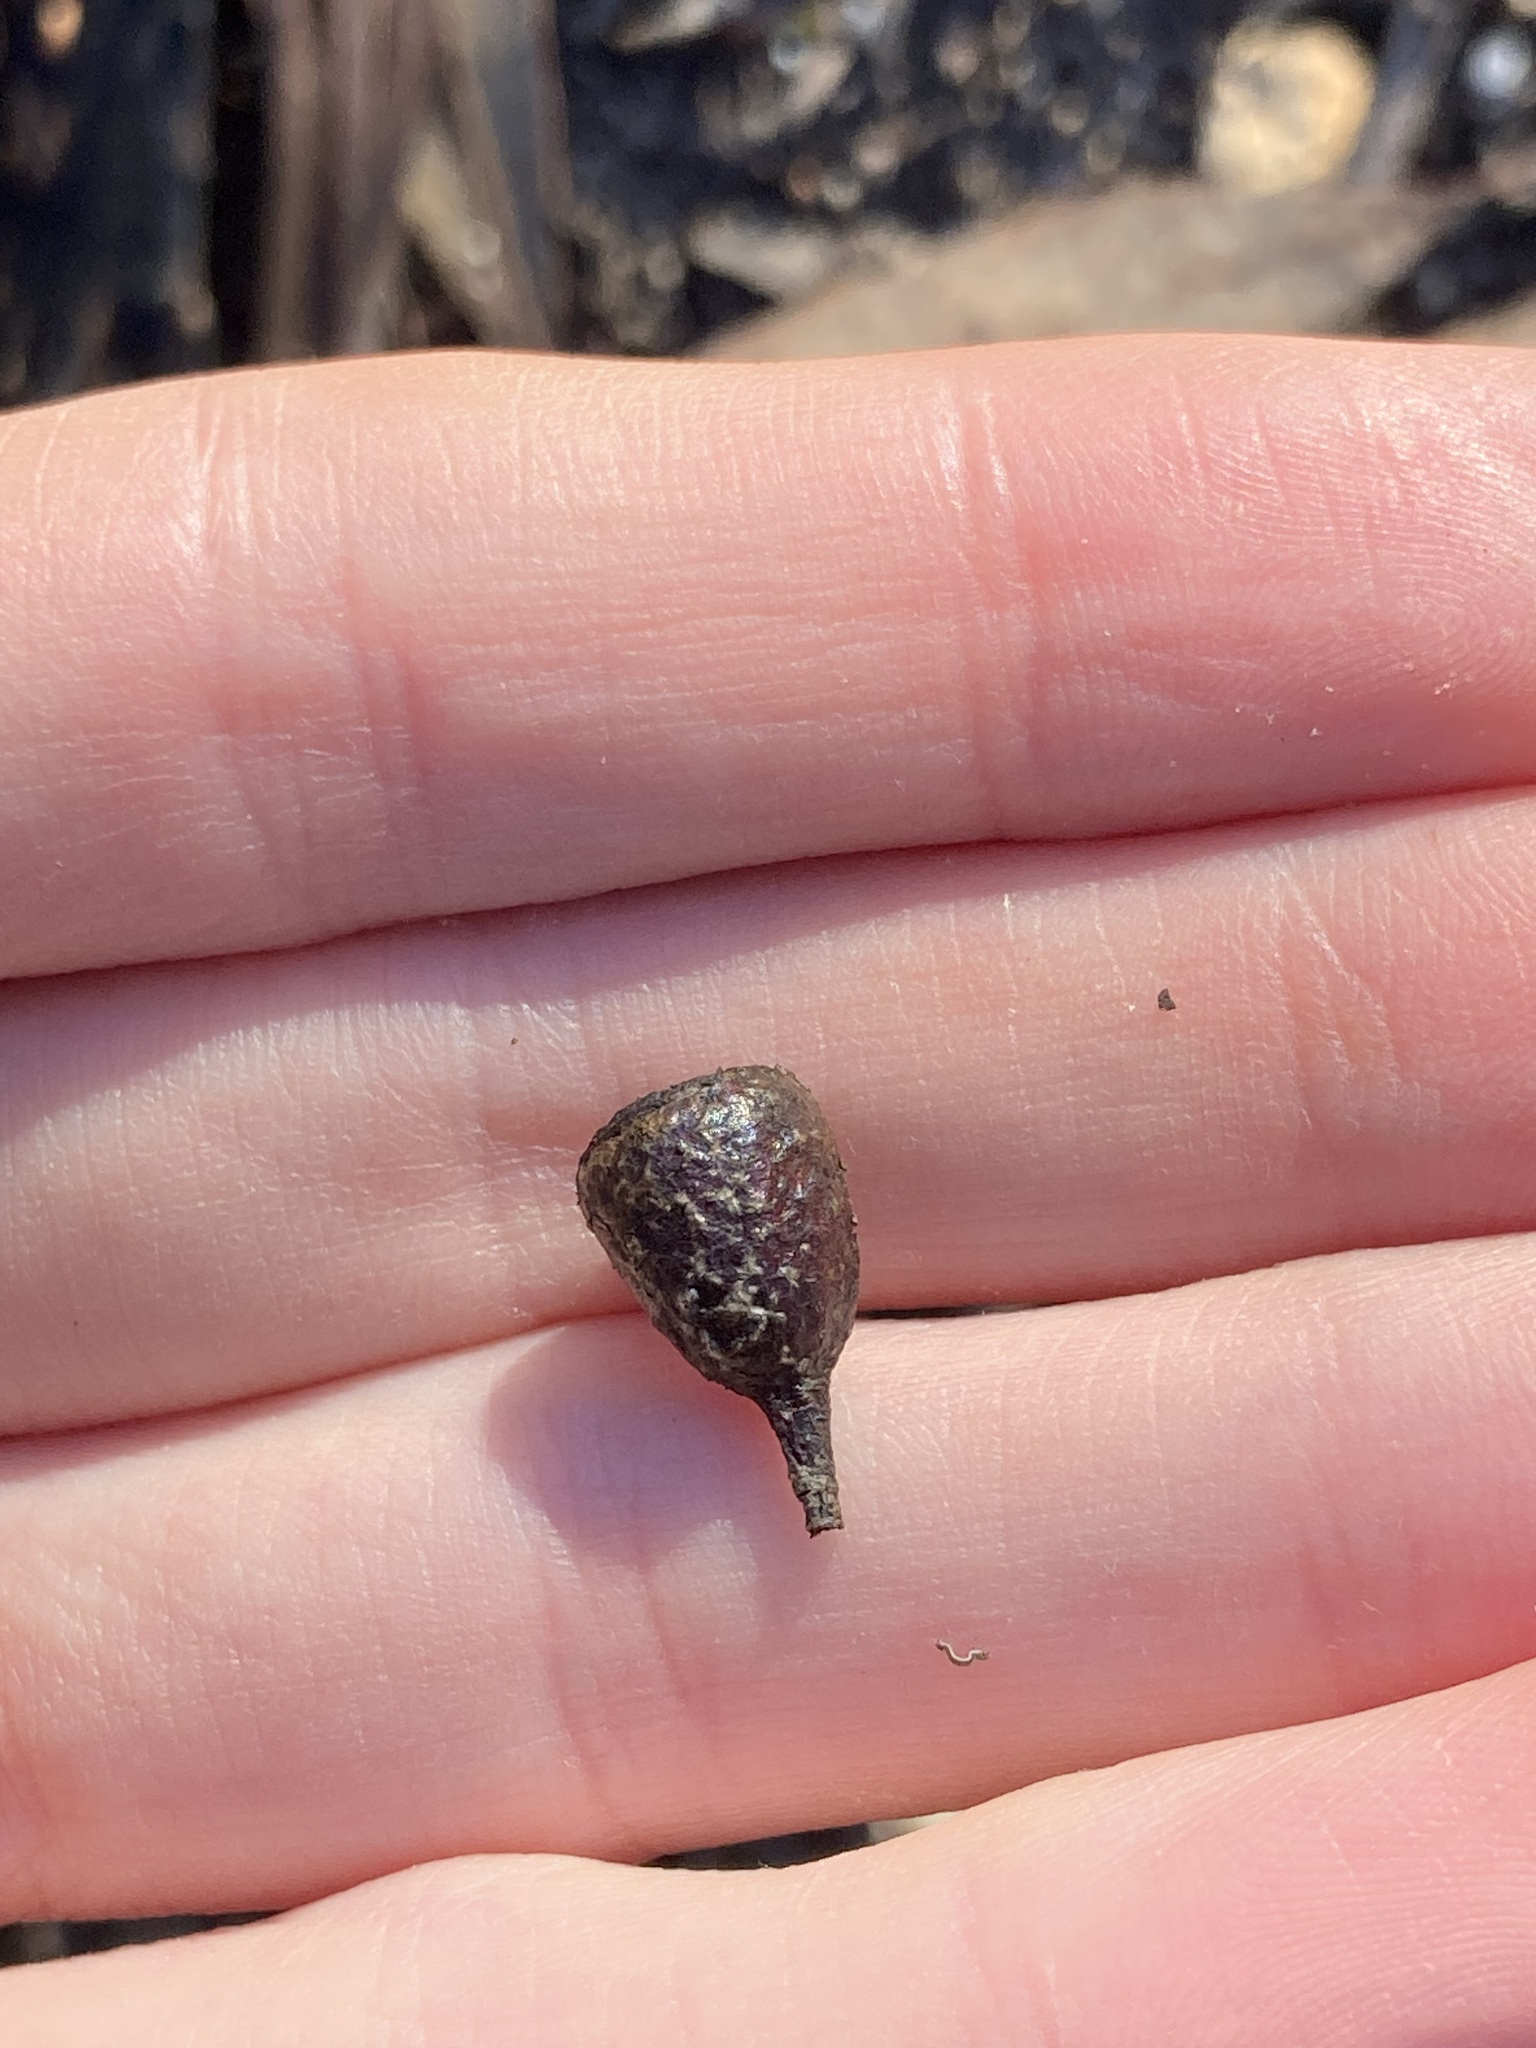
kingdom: Plantae
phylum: Tracheophyta
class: Magnoliopsida
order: Myrtales
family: Myrtaceae
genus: Eucalyptus
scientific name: Eucalyptus astringens
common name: Brown mallet
